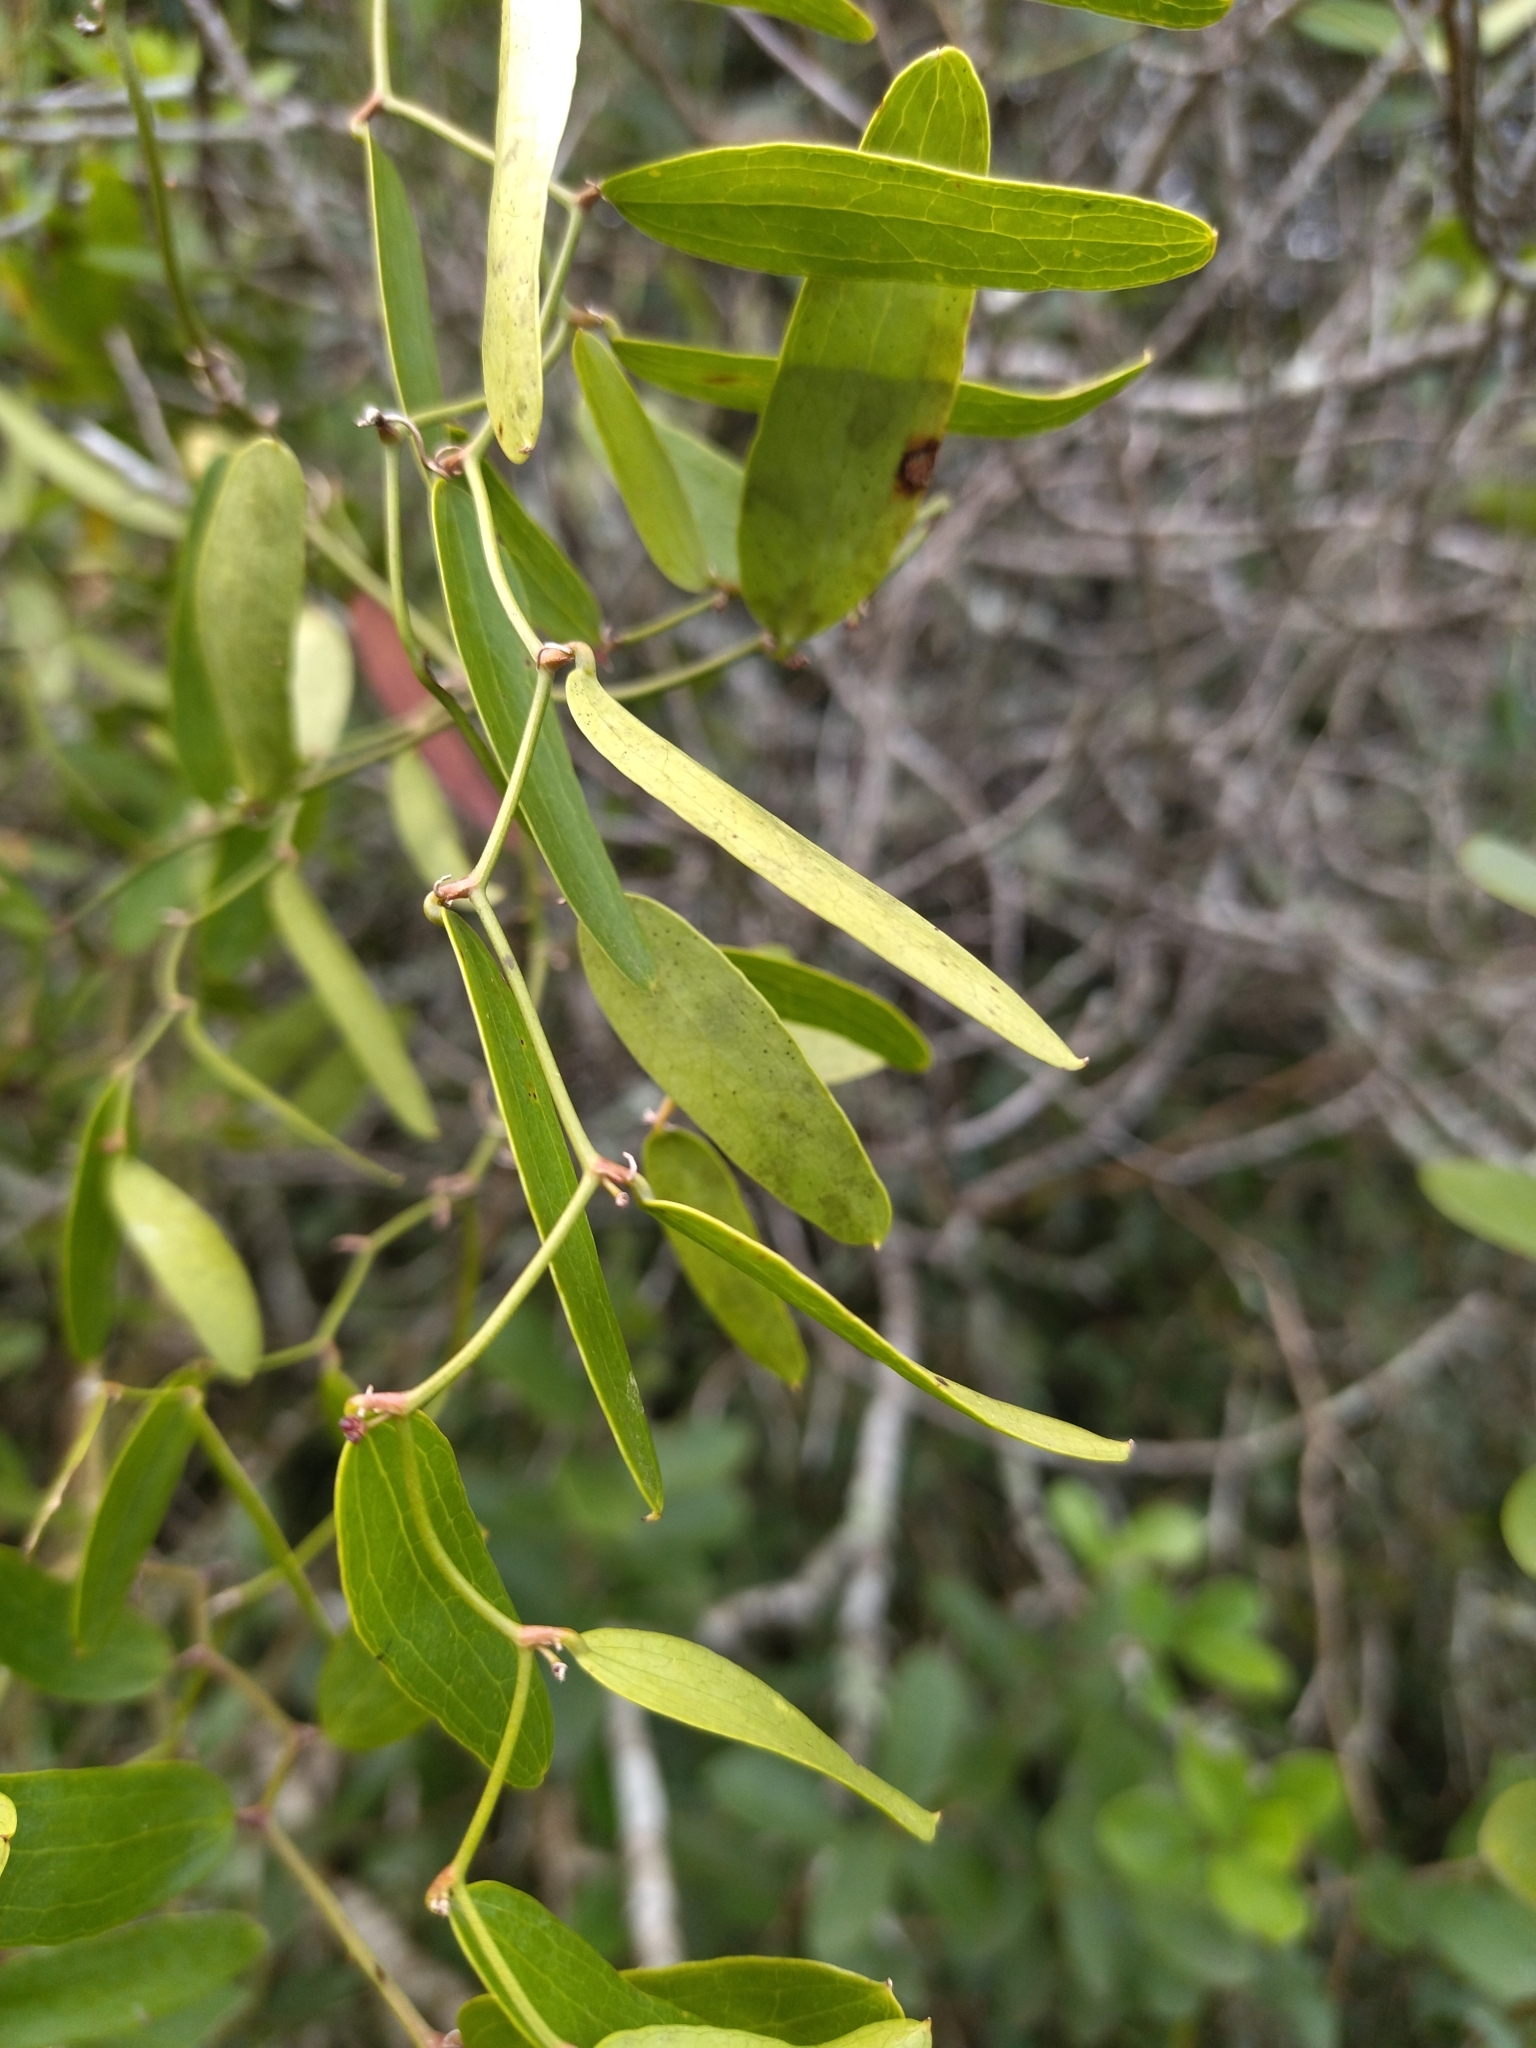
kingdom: Plantae
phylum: Tracheophyta
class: Liliopsida
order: Liliales
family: Smilacaceae
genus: Smilax
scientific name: Smilax campestris
